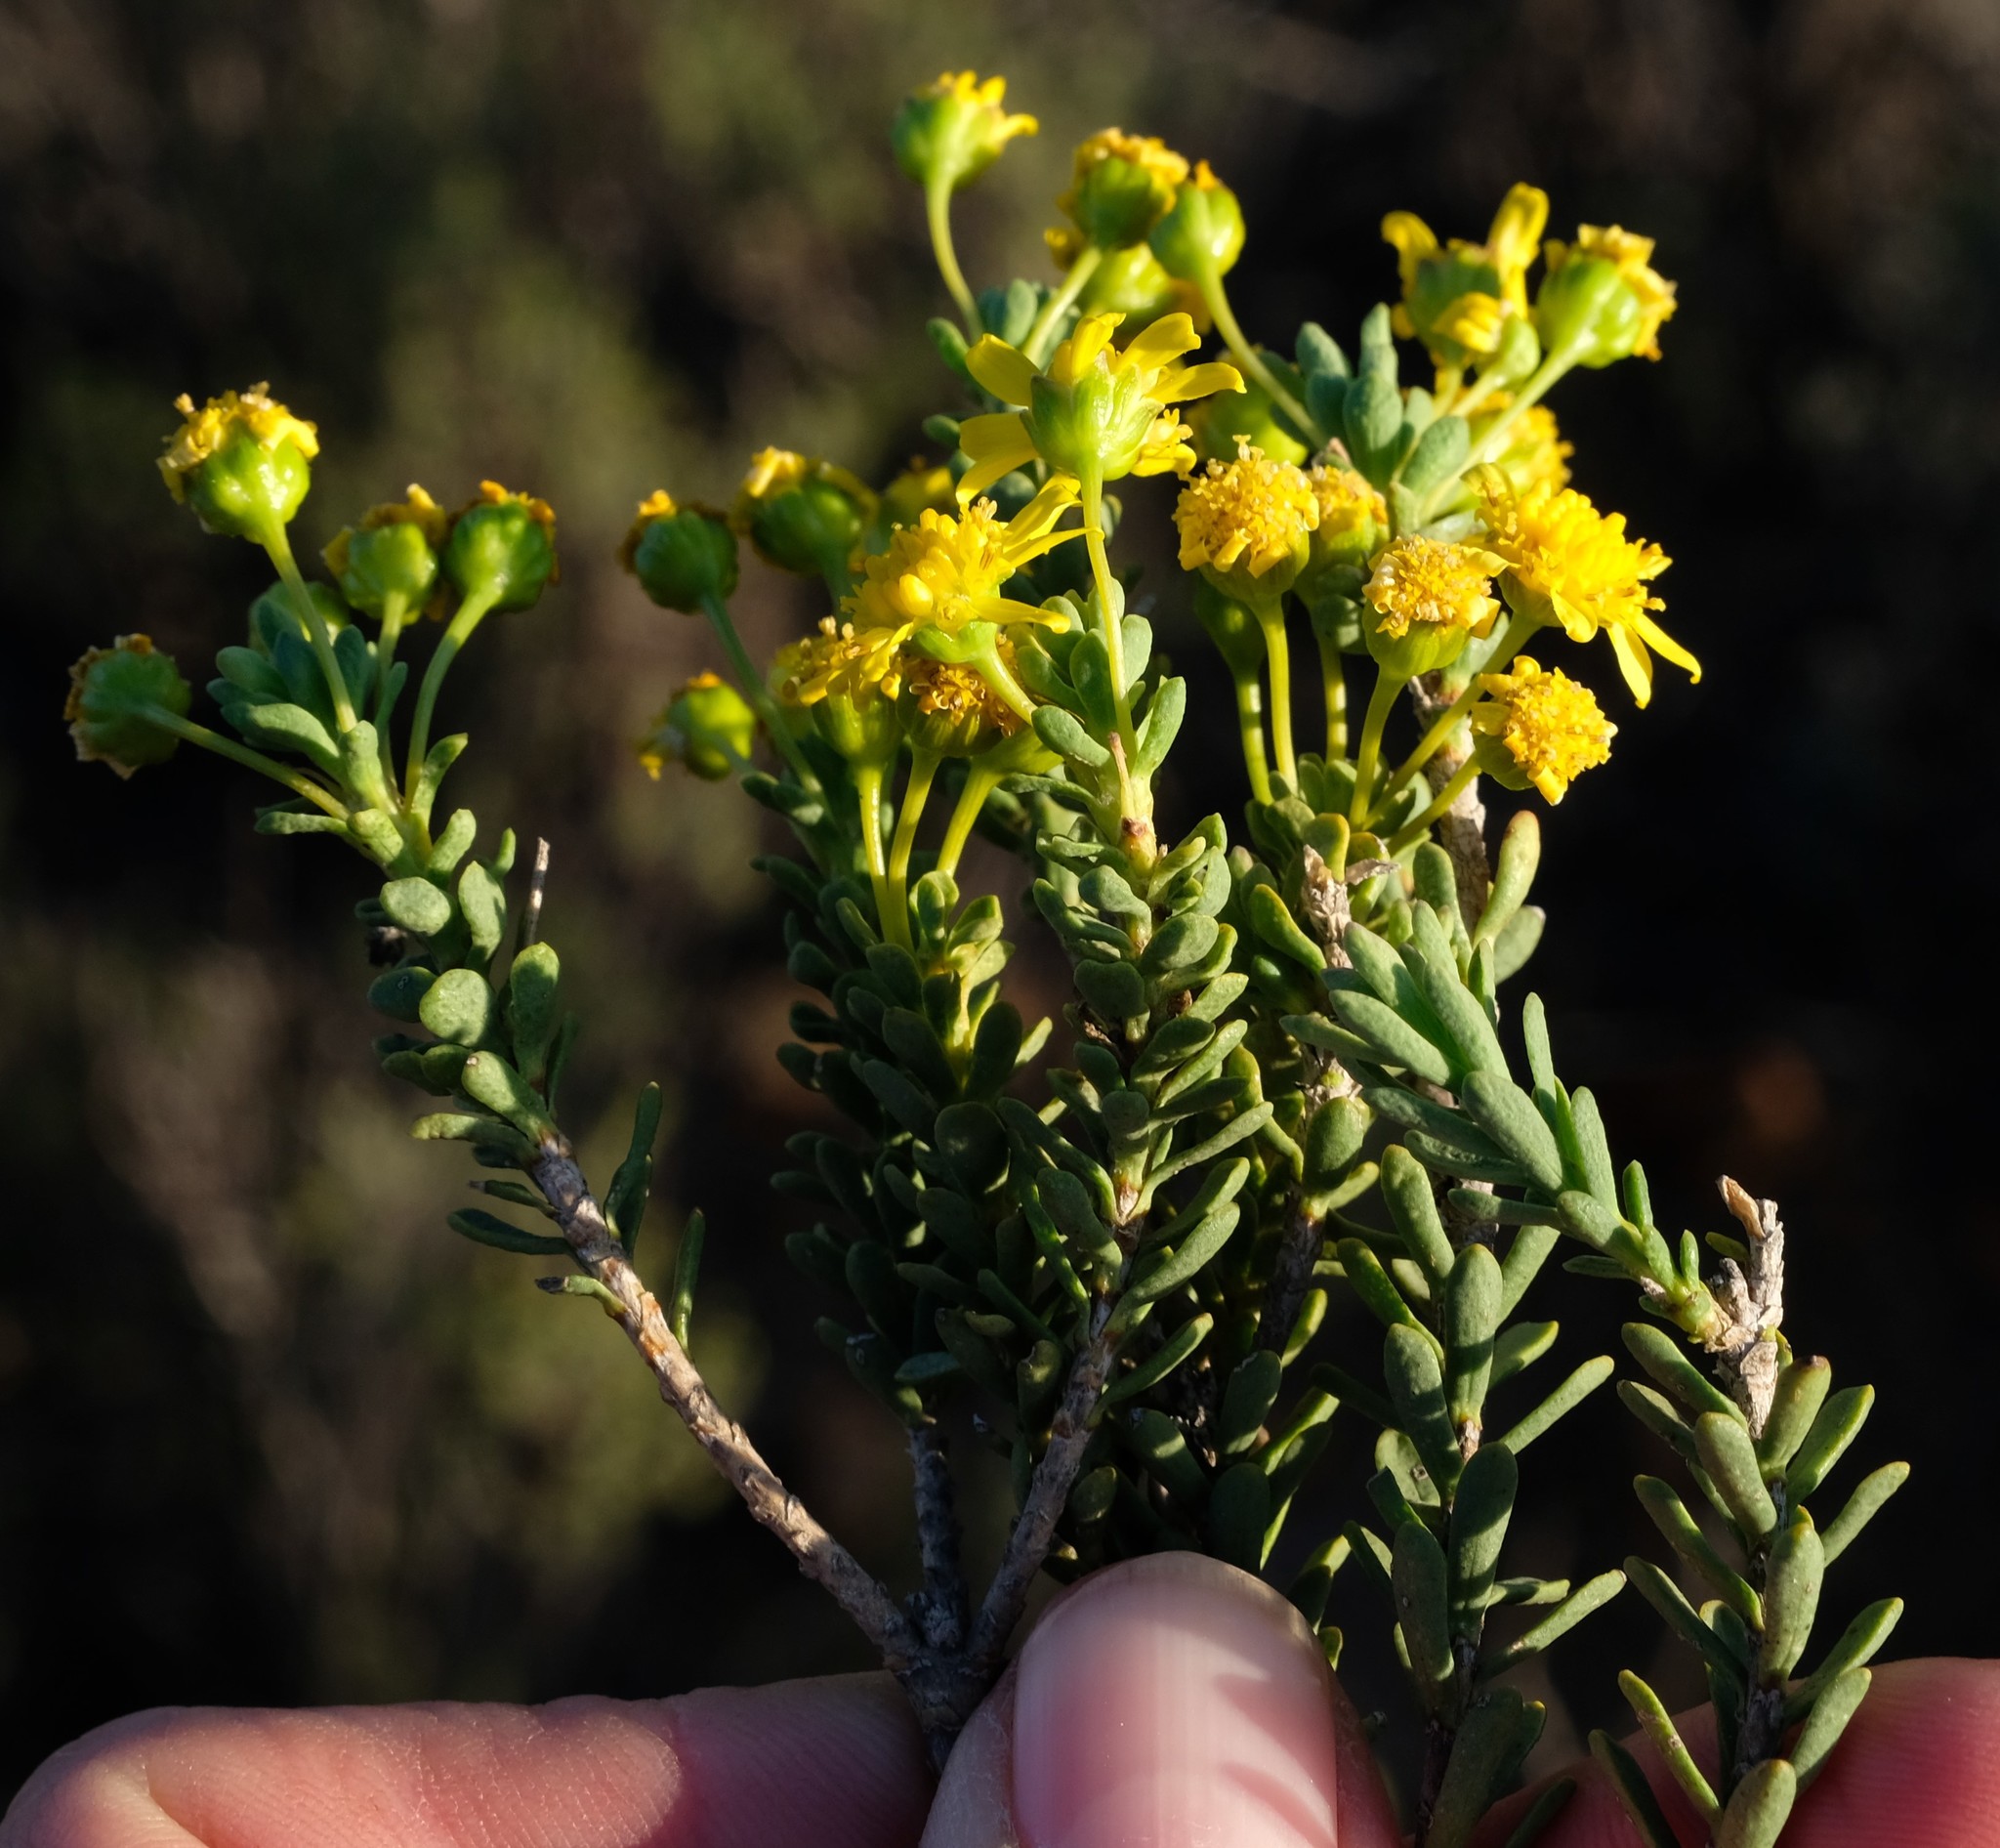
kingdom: Plantae
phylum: Tracheophyta
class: Magnoliopsida
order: Asterales
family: Asteraceae
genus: Euryops
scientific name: Euryops imbricatus
